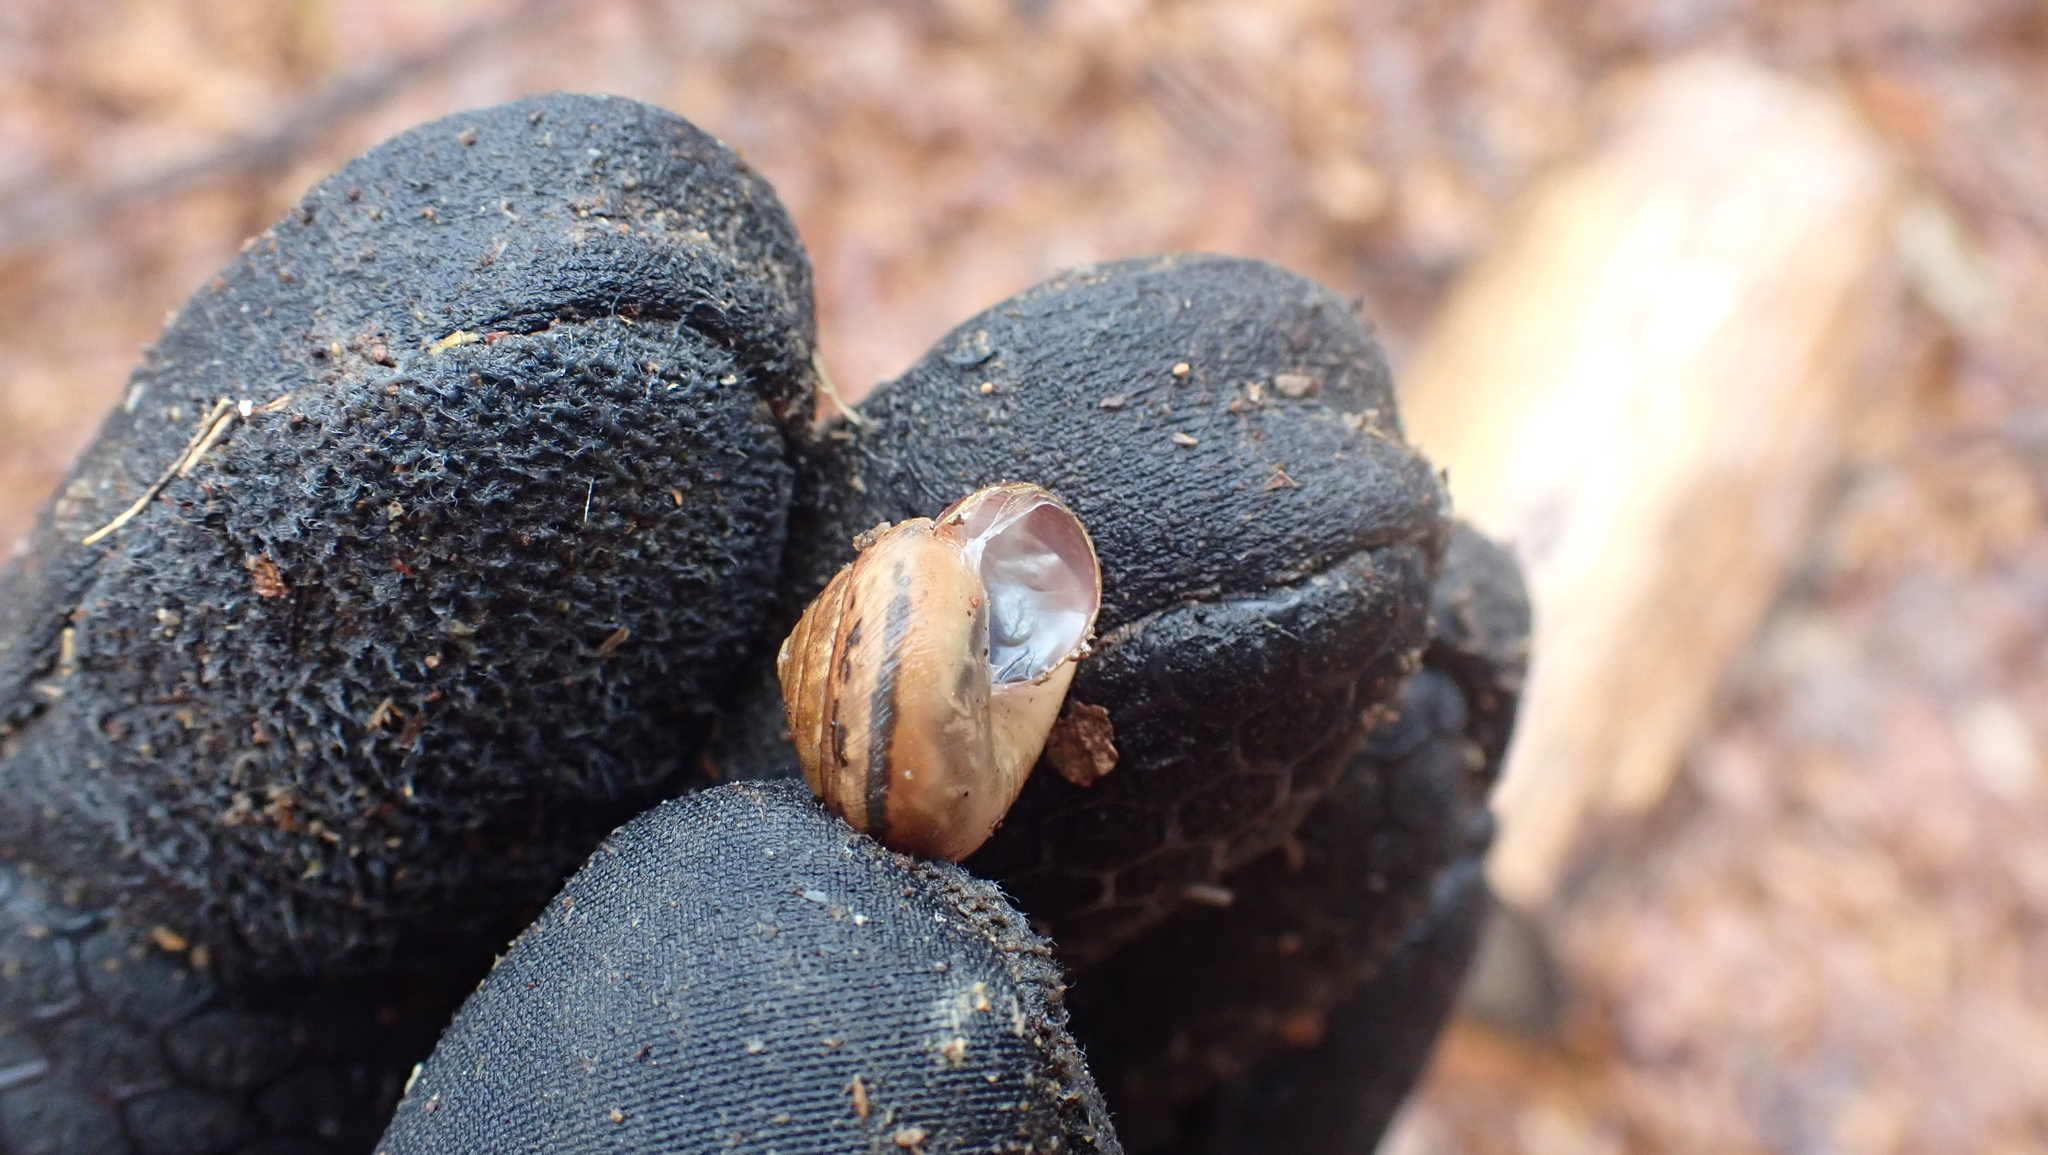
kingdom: Animalia
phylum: Mollusca
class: Gastropoda
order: Stylommatophora
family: Gastrodontidae
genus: Ventridens
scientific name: Ventridens intertextus
